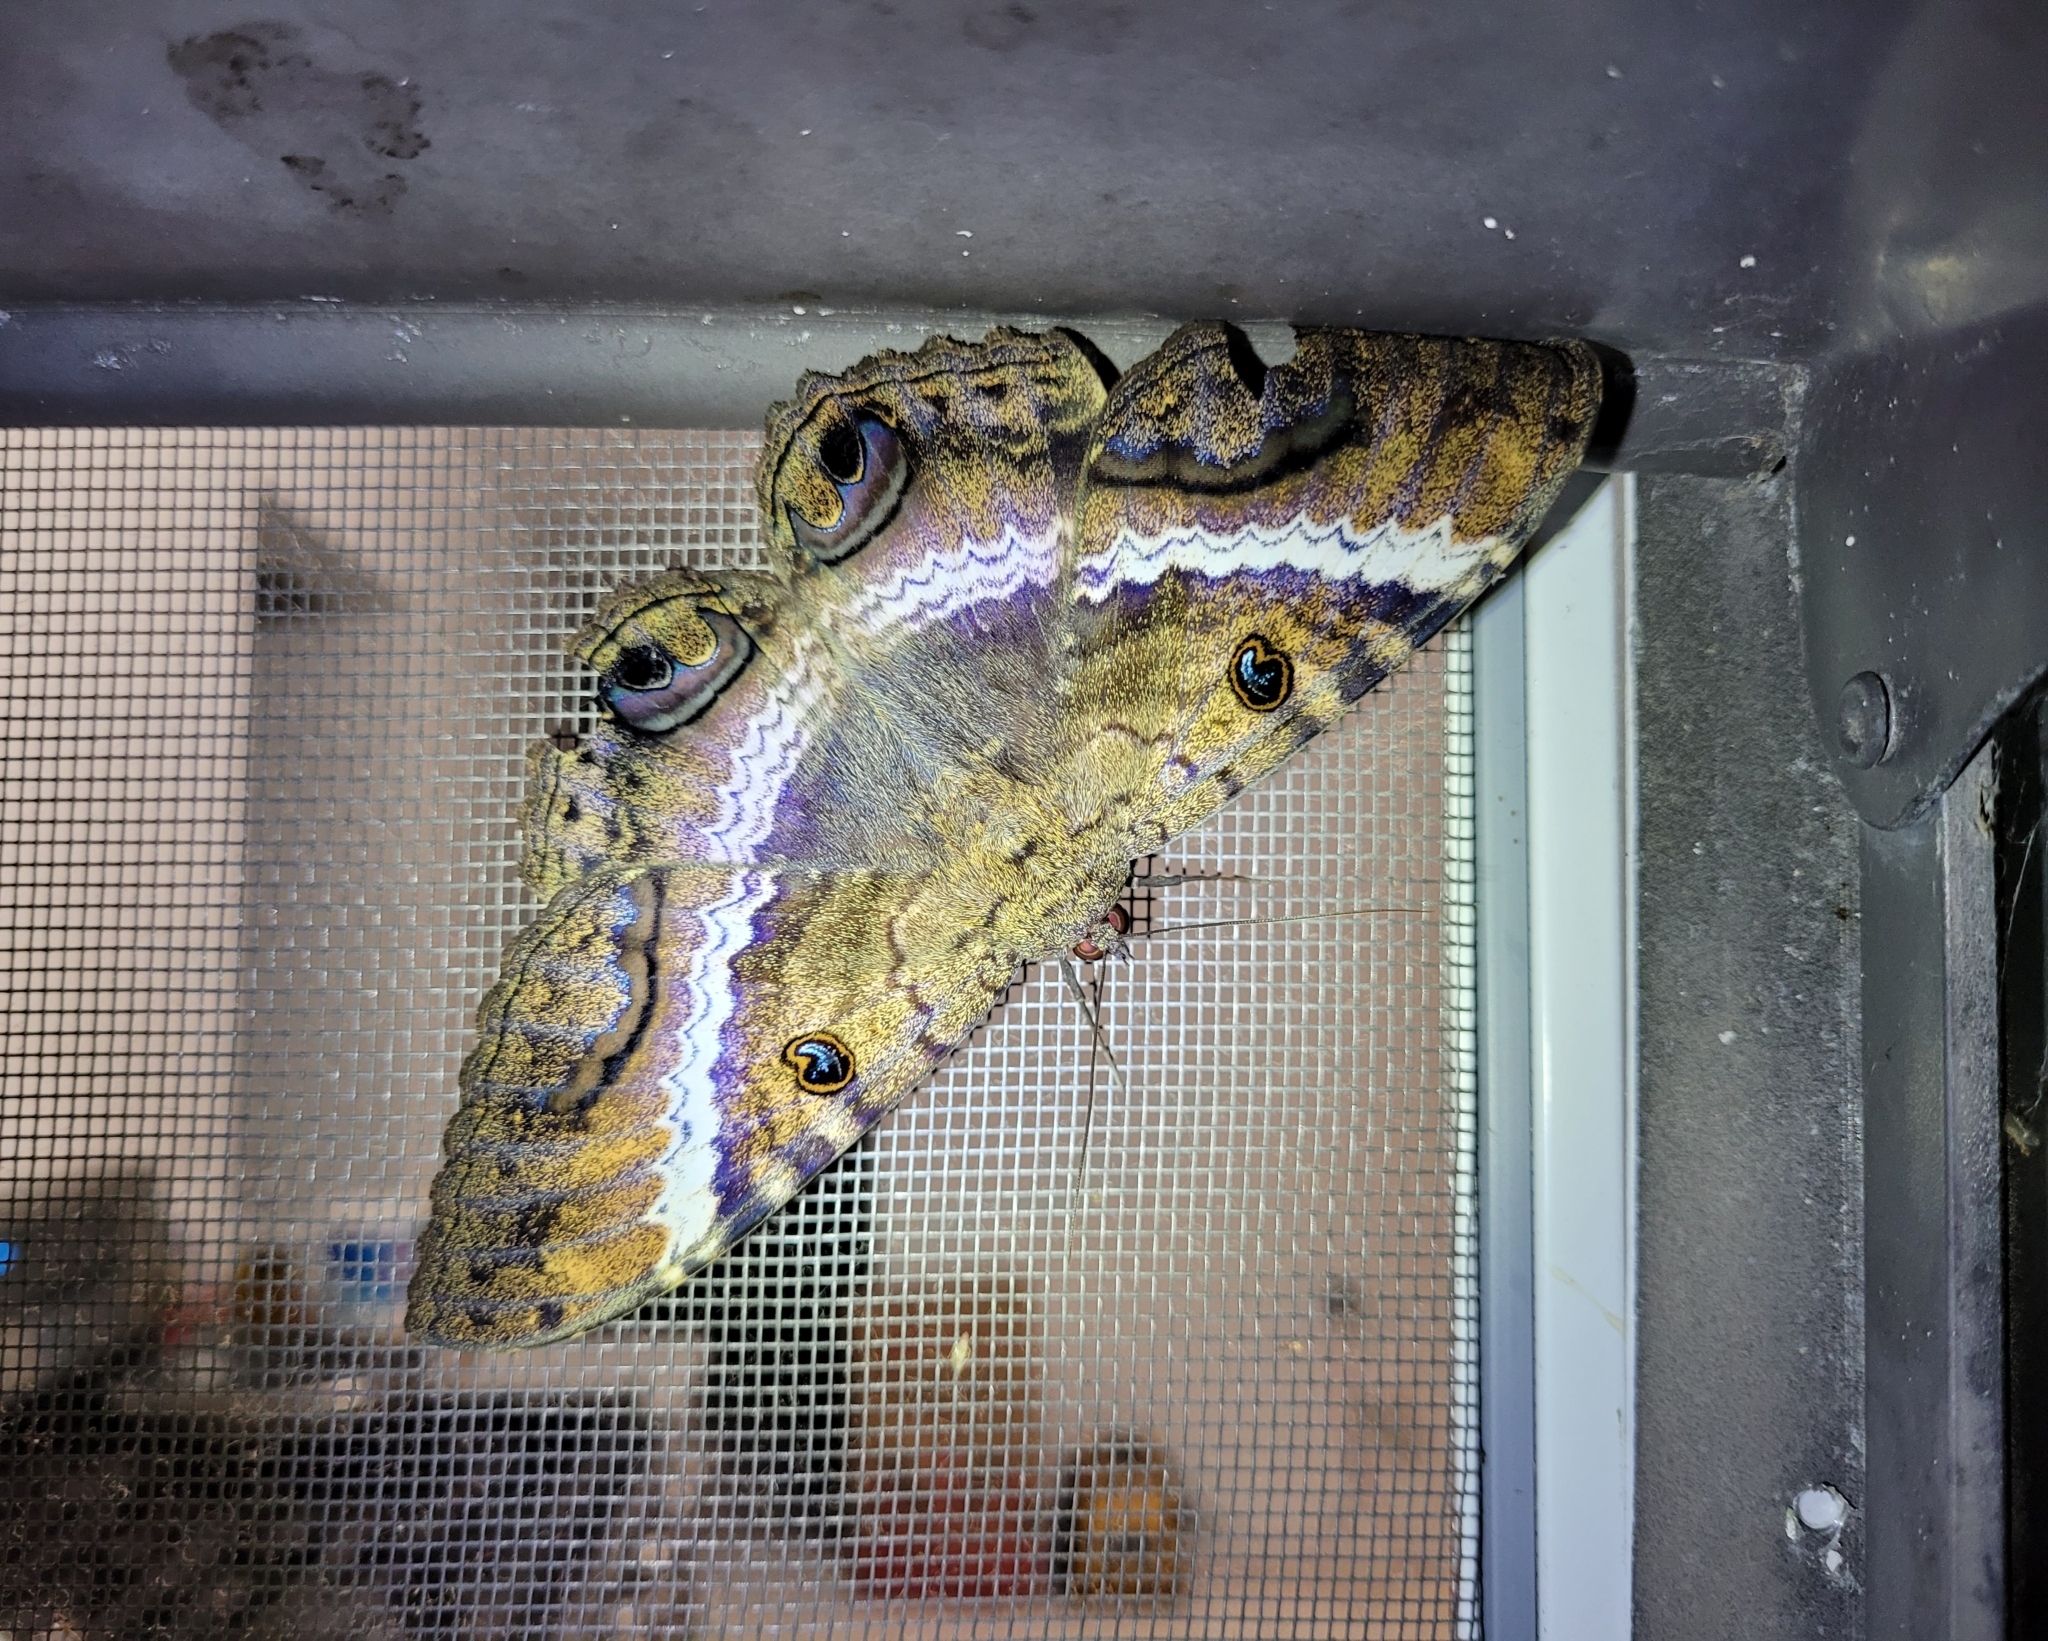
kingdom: Animalia
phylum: Arthropoda
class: Insecta
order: Lepidoptera
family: Erebidae
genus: Ascalapha
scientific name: Ascalapha odorata
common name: Black witch
